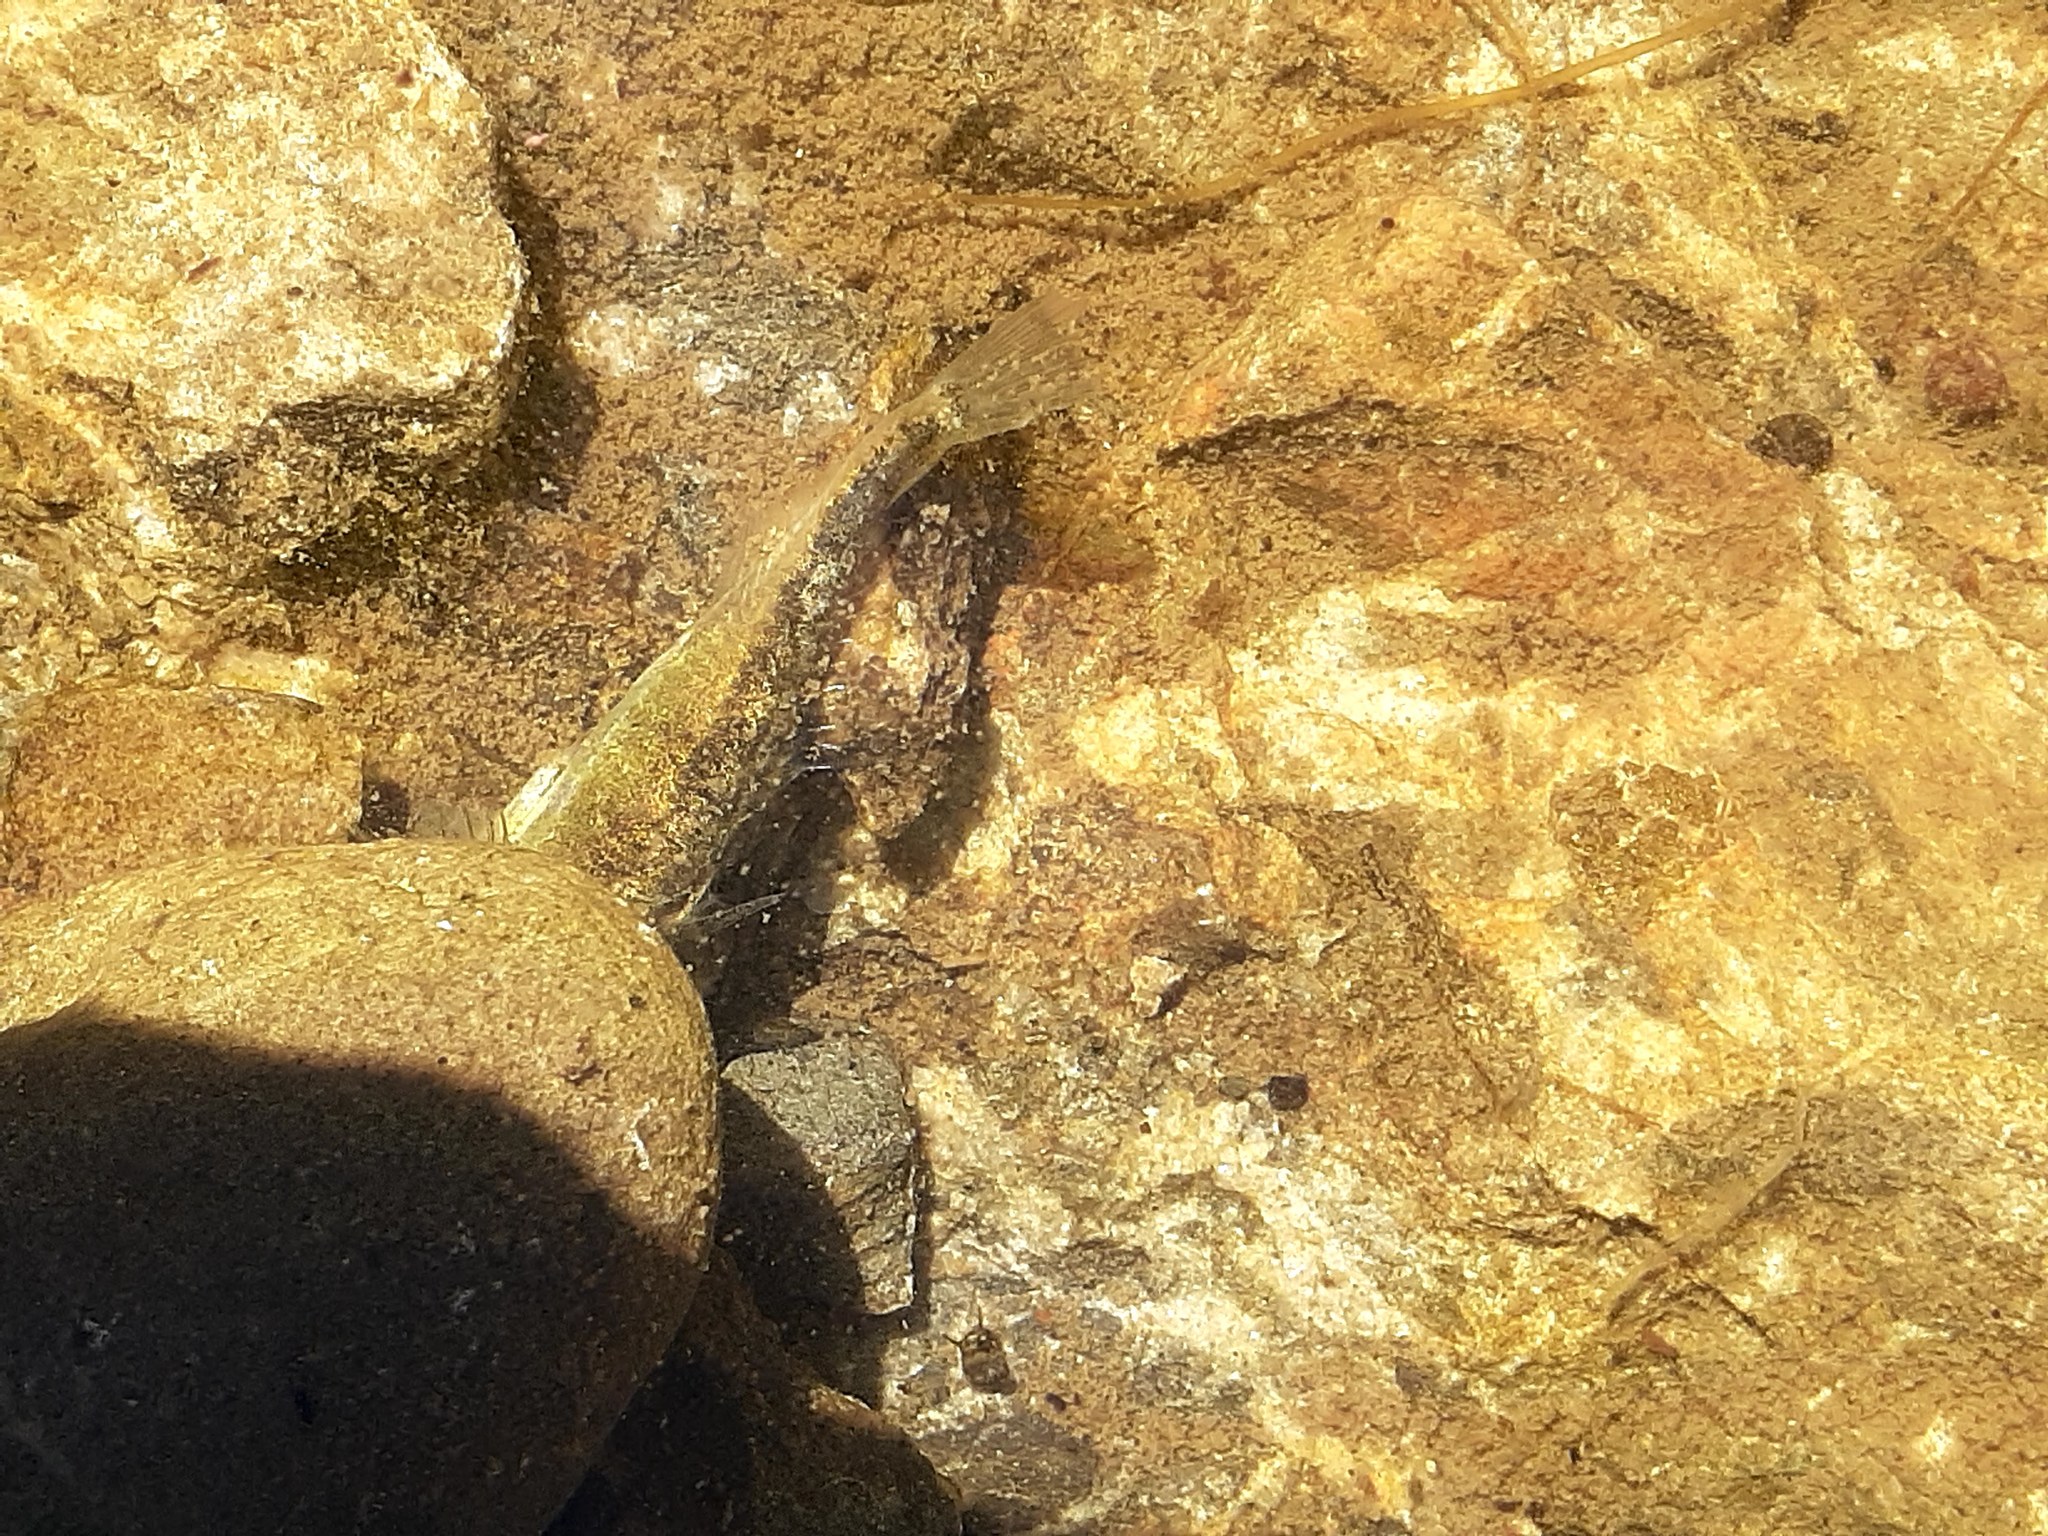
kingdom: Animalia
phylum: Chordata
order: Gasterosteiformes
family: Gasterosteidae
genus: Gasterosteus
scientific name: Gasterosteus aculeatus
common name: Three-spined stickleback
